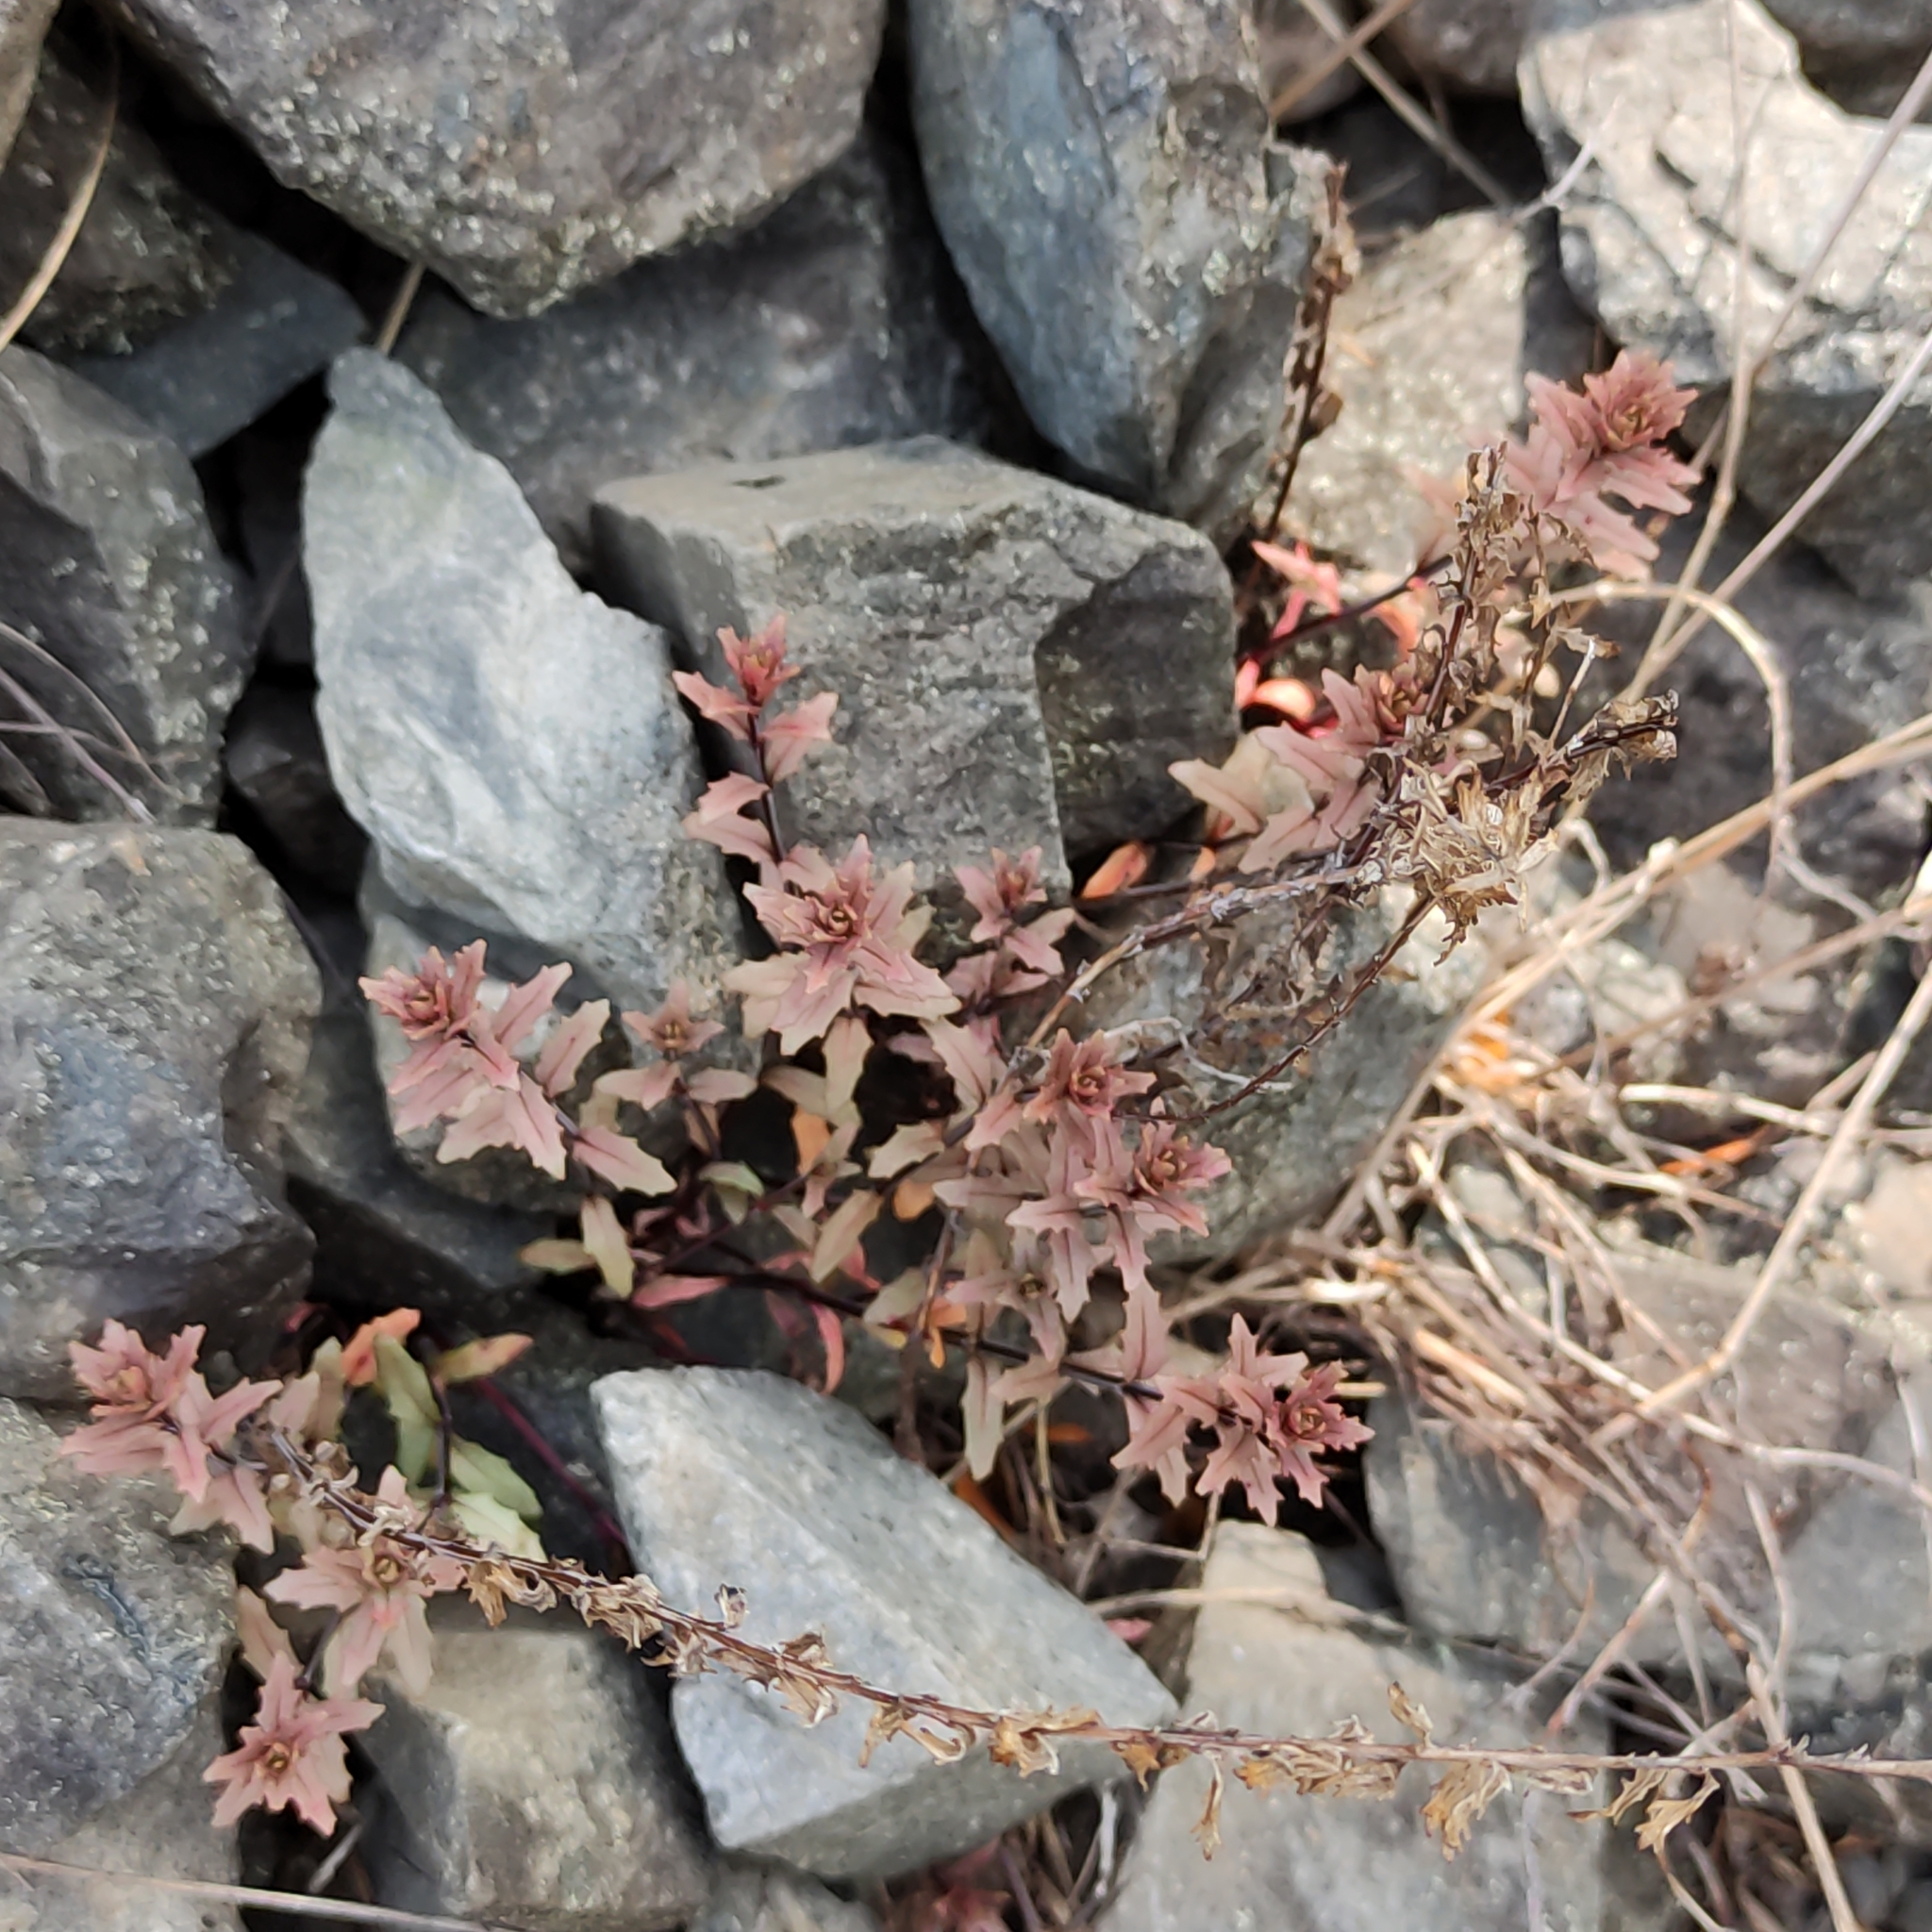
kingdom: Plantae
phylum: Tracheophyta
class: Magnoliopsida
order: Myrtales
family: Onagraceae
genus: Epilobium
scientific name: Epilobium melanocaulon
